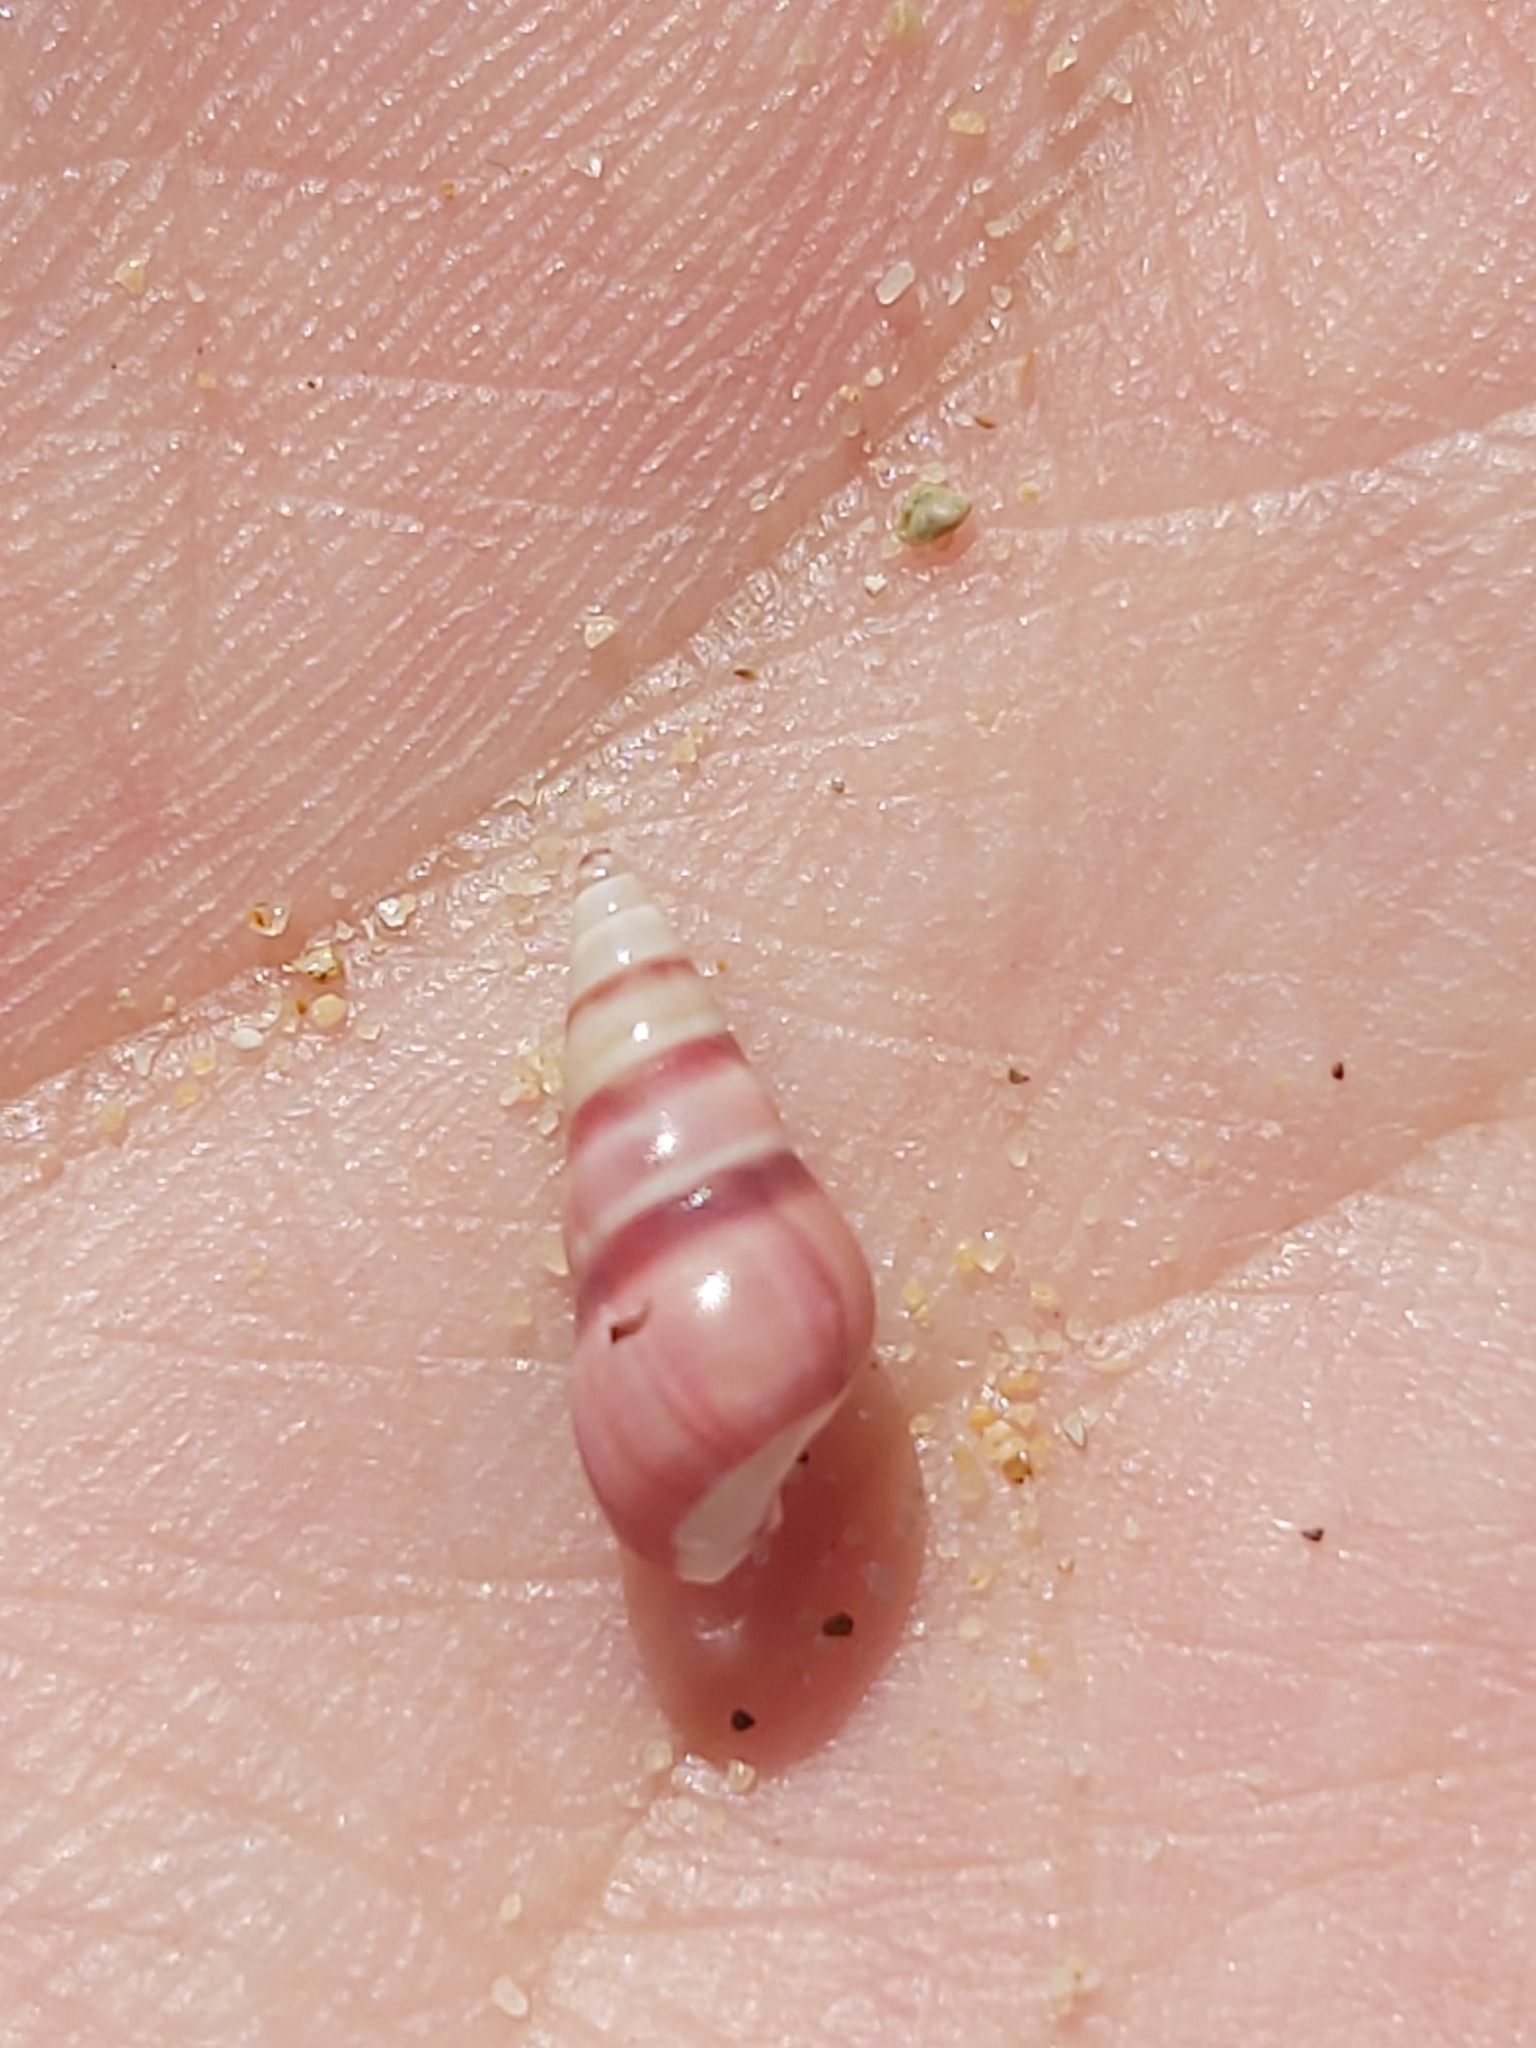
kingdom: Animalia
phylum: Mollusca
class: Gastropoda
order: Trochida
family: Trochidae
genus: Bankivia
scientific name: Bankivia fasciata
